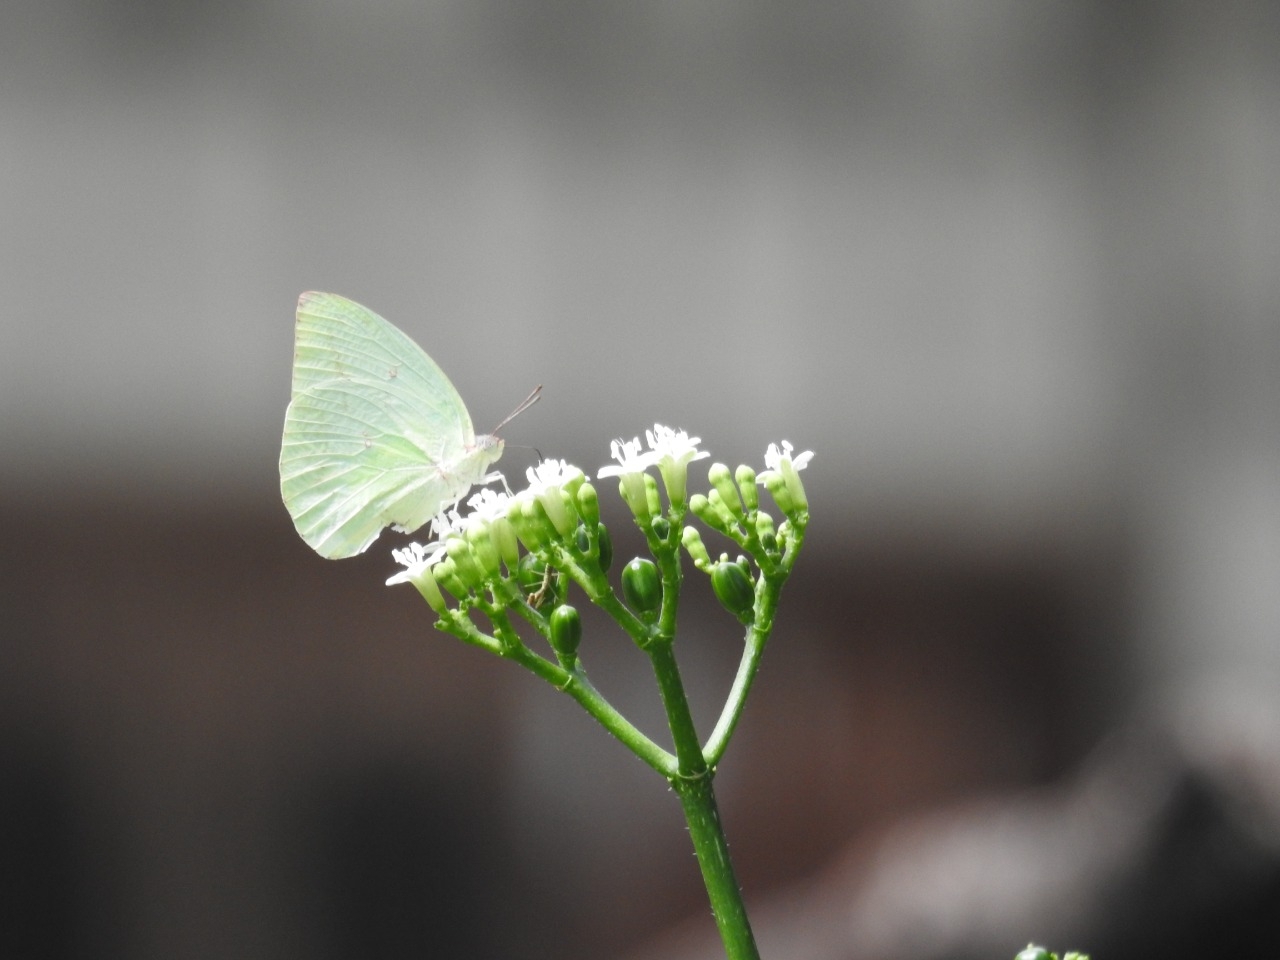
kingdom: Animalia
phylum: Arthropoda
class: Insecta
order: Lepidoptera
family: Pieridae
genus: Catopsilia
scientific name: Catopsilia pomona
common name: Common emigrant
